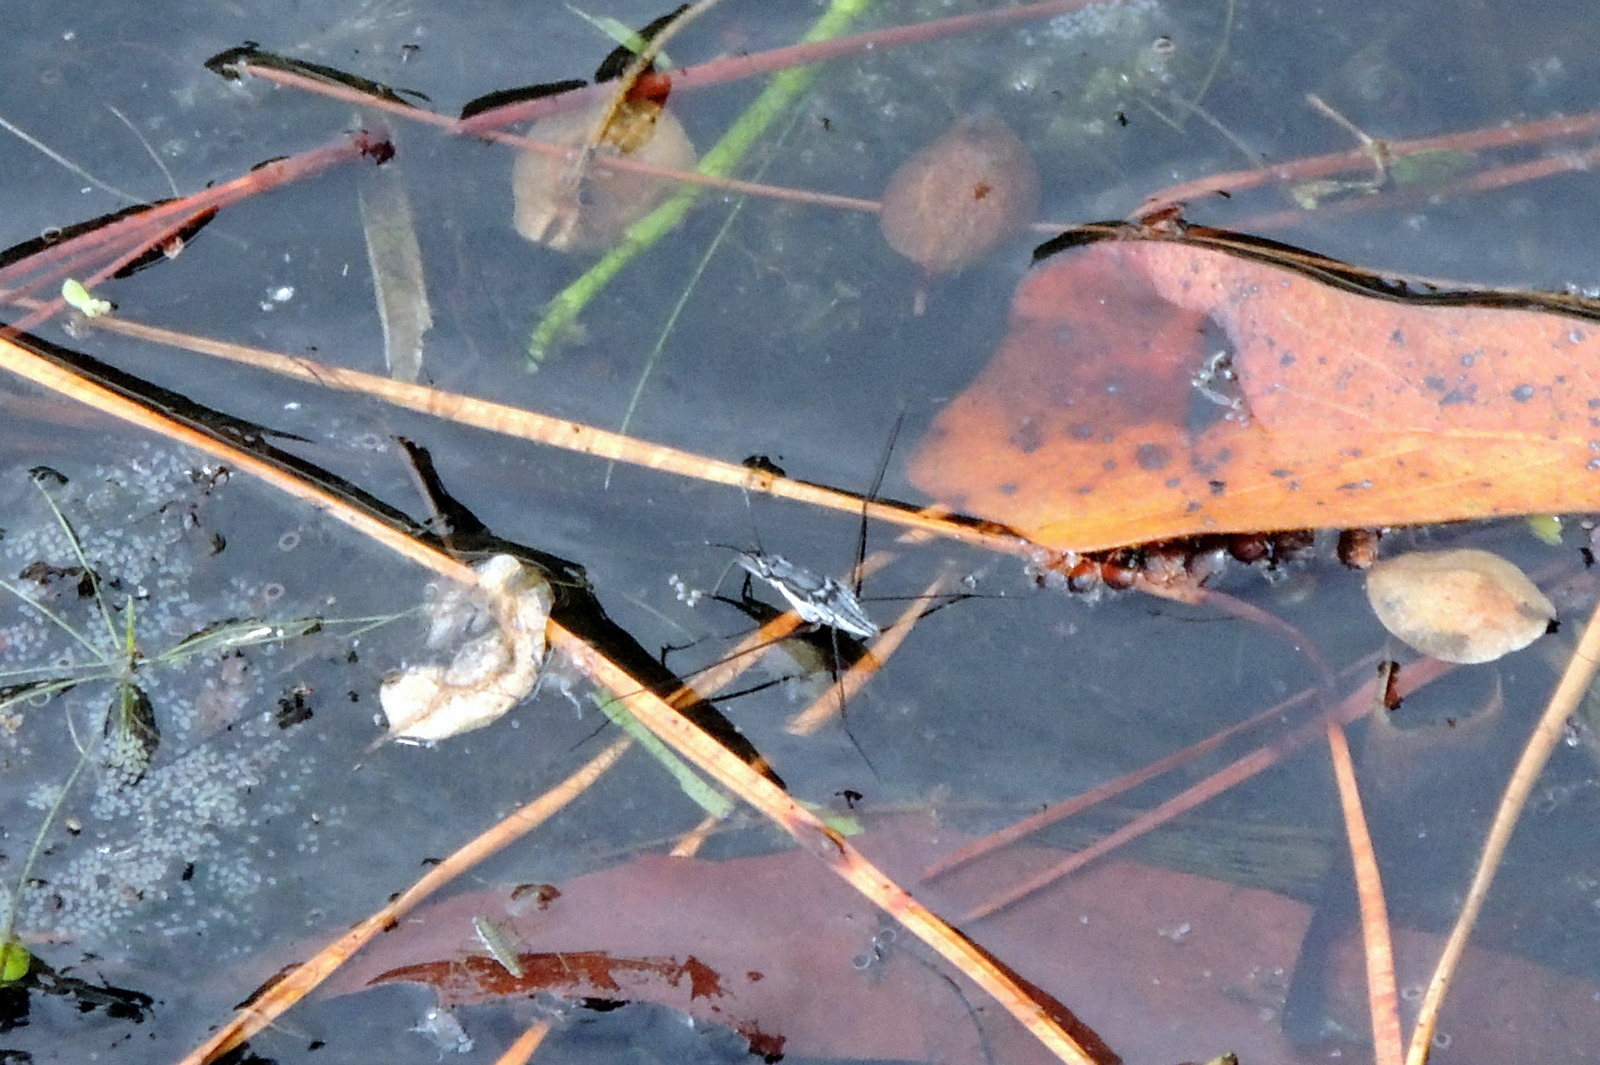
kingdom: Animalia
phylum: Arthropoda
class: Insecta
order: Hemiptera
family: Gerridae
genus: Neogerris
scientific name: Neogerris hesione
